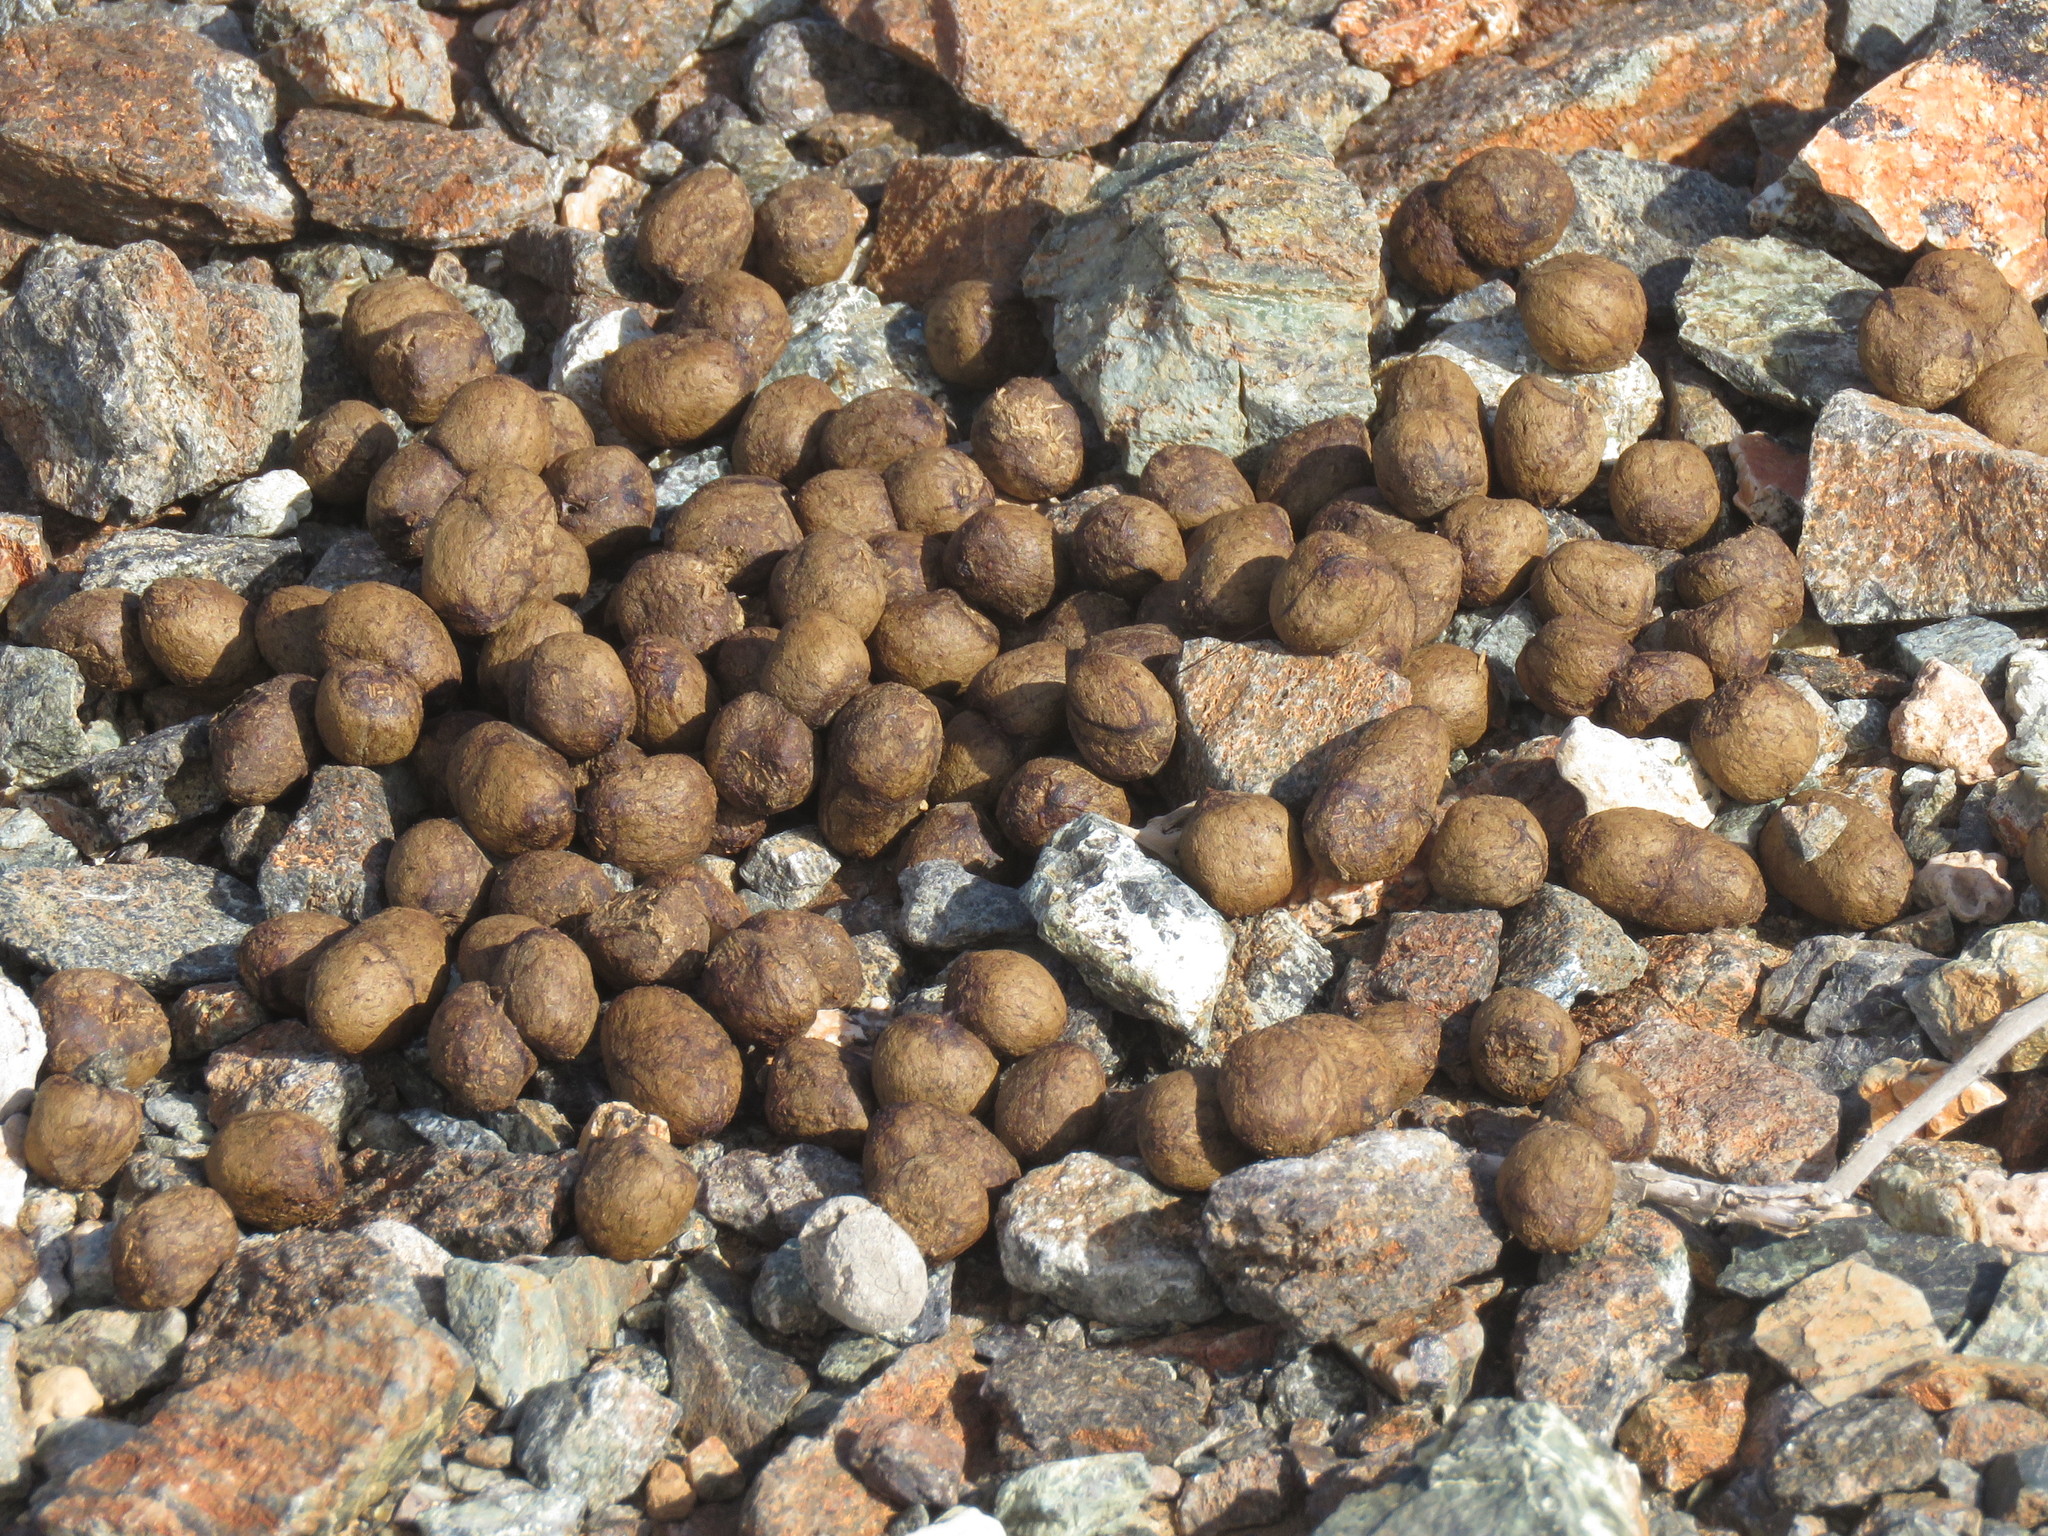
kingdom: Animalia
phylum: Chordata
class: Mammalia
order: Artiodactyla
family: Bovidae
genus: Capra
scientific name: Capra hircus
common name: Domestic goat
